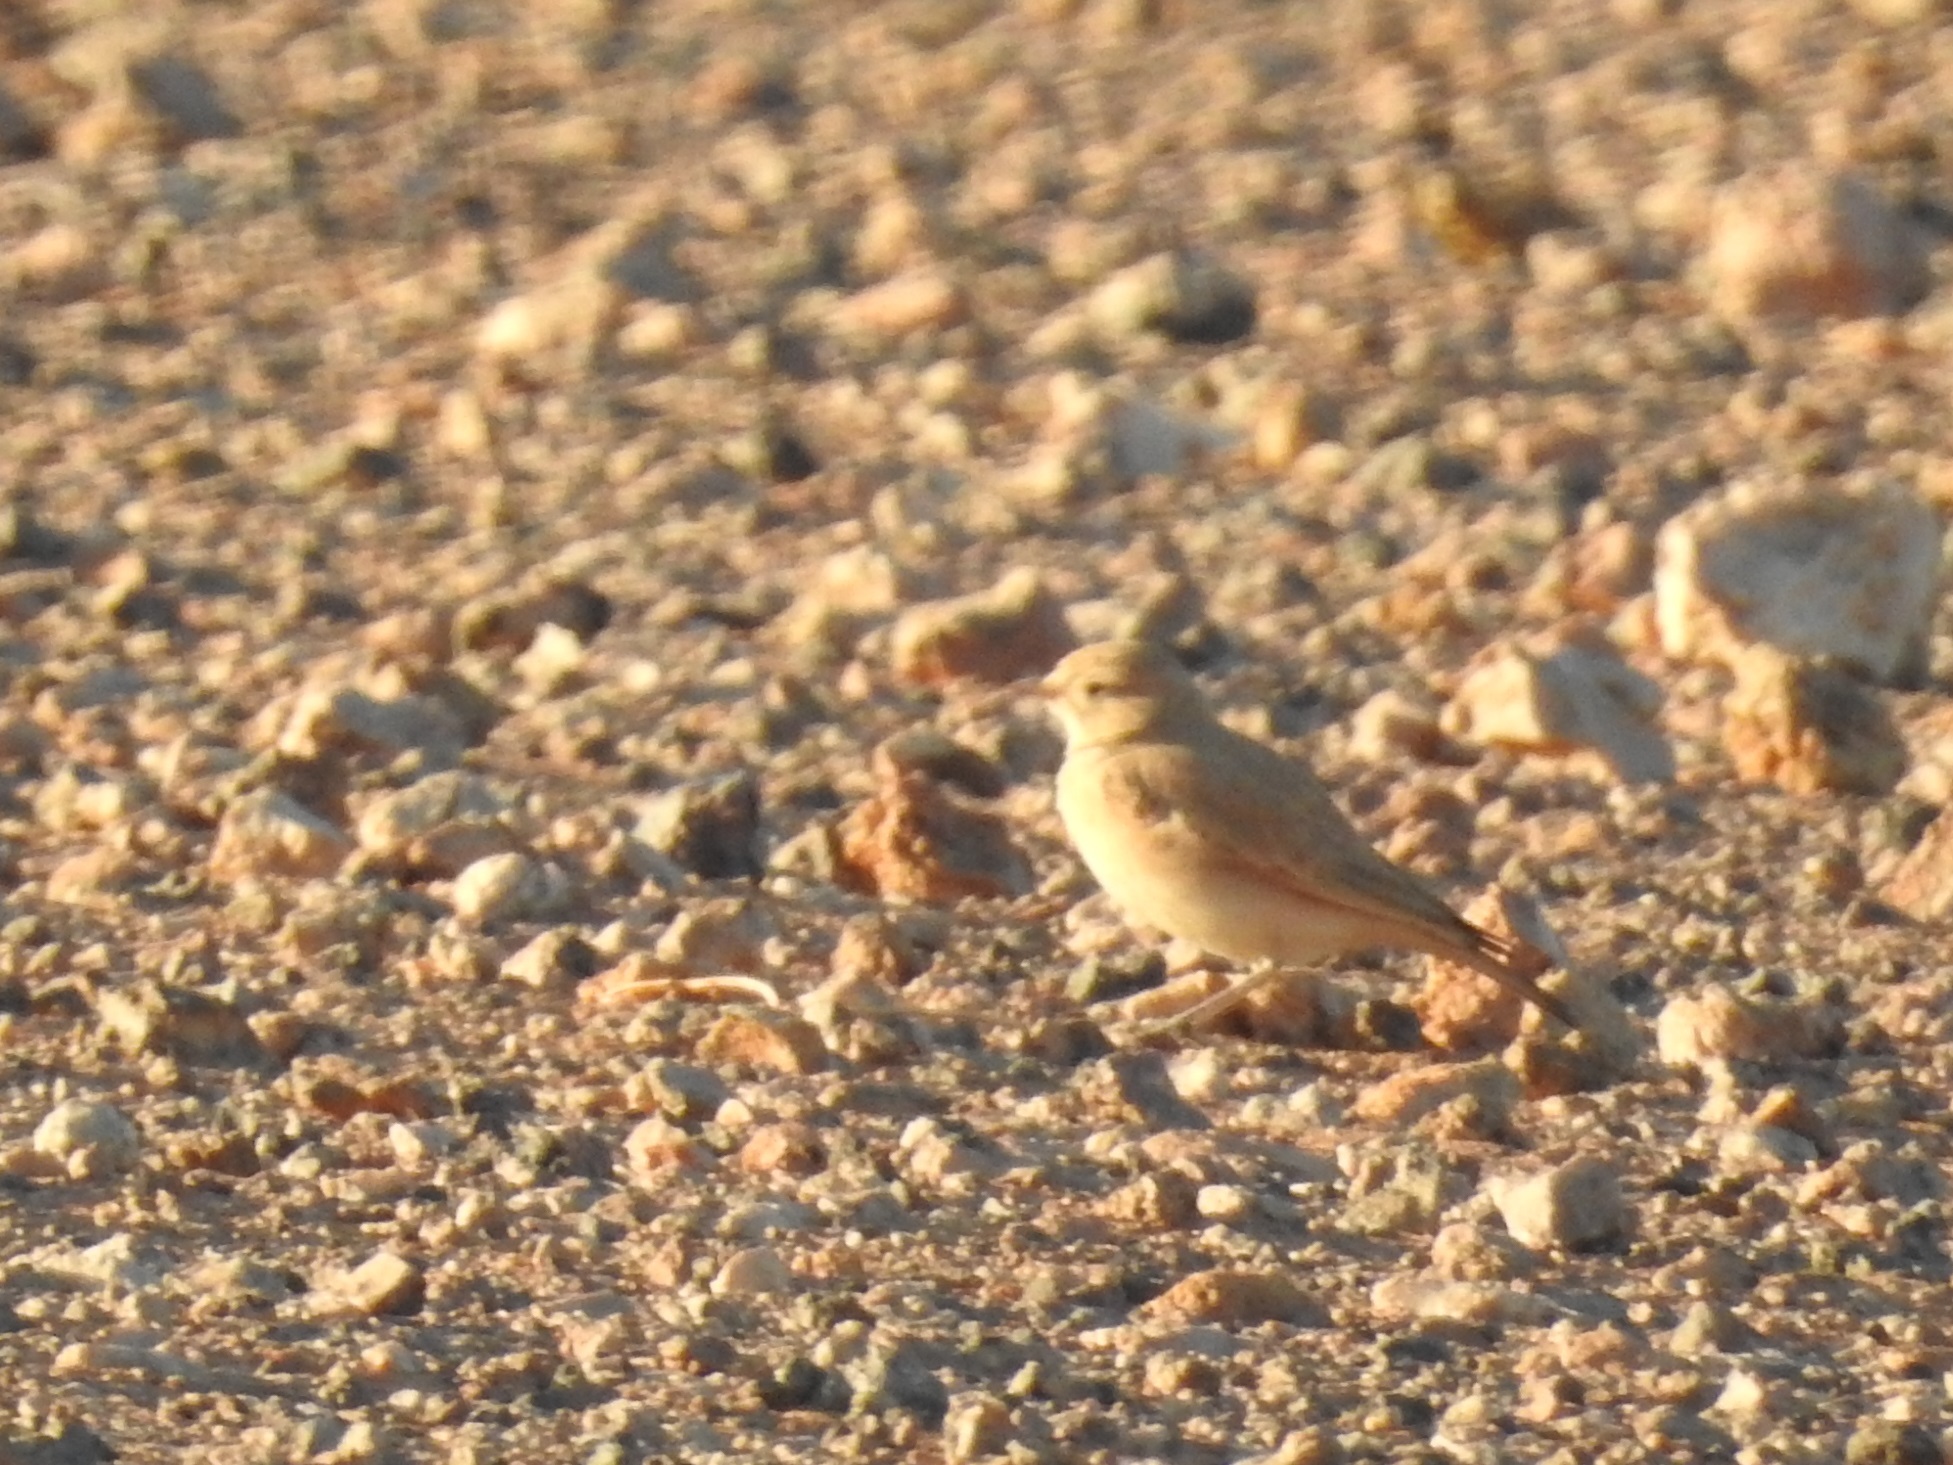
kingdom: Animalia
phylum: Chordata
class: Aves
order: Passeriformes
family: Alaudidae
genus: Ammomanes
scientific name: Ammomanes cinctura
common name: Bar-tailed lark
